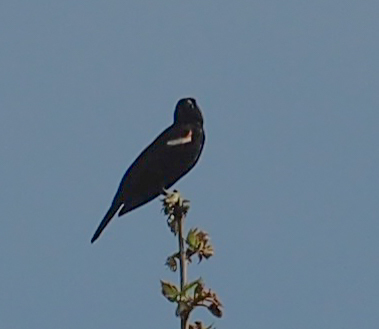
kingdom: Animalia
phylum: Chordata
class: Aves
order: Passeriformes
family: Icteridae
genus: Agelaius
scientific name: Agelaius phoeniceus
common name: Red-winged blackbird
